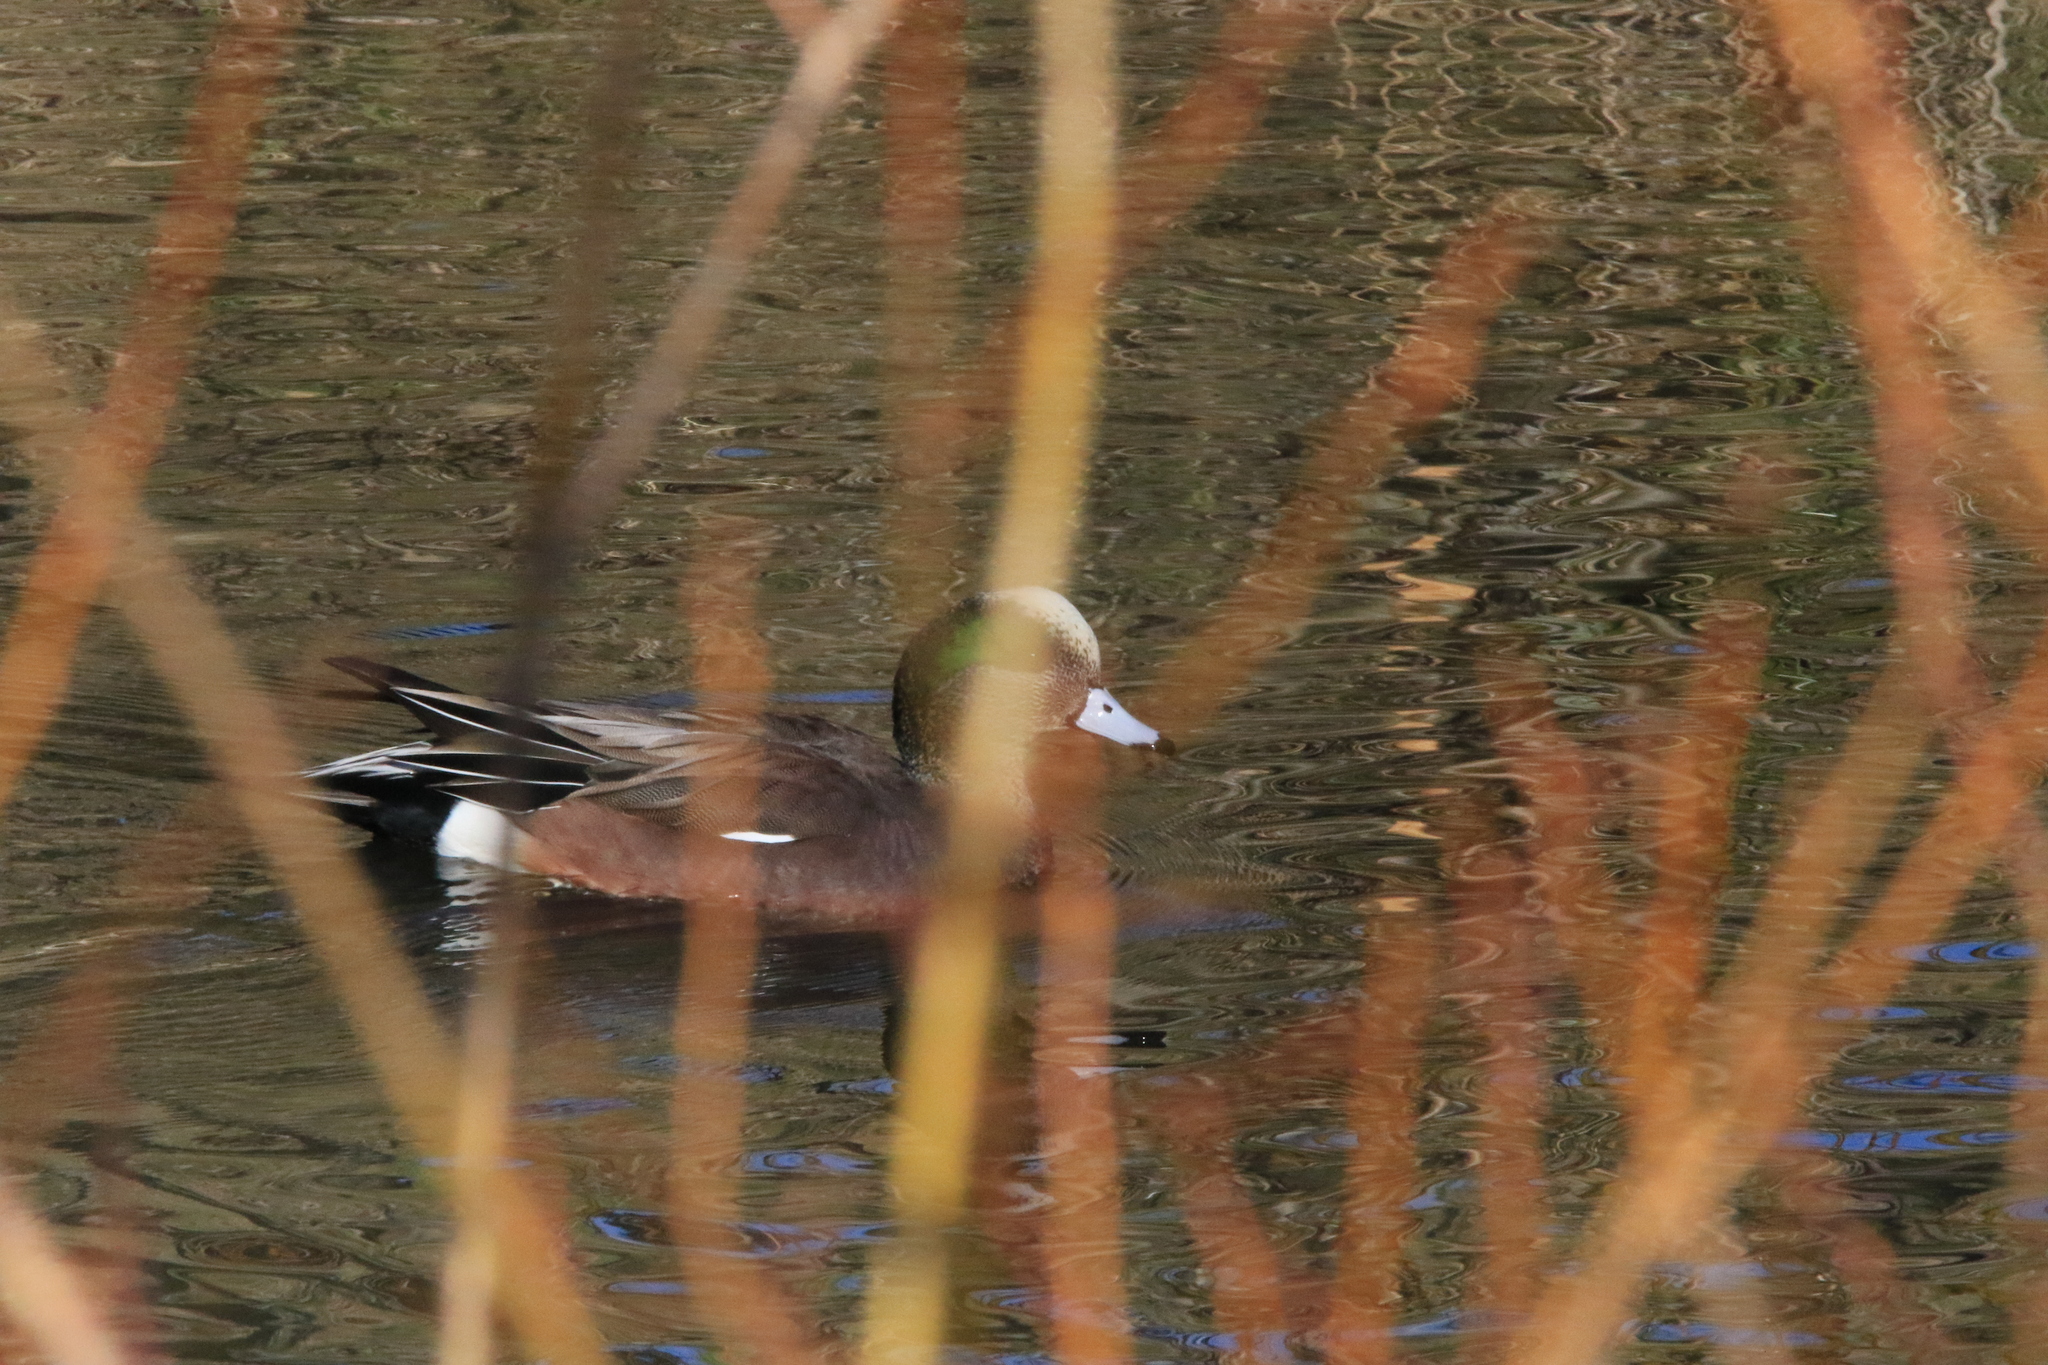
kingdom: Animalia
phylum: Chordata
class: Aves
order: Anseriformes
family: Anatidae
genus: Mareca
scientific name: Mareca americana
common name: American wigeon
